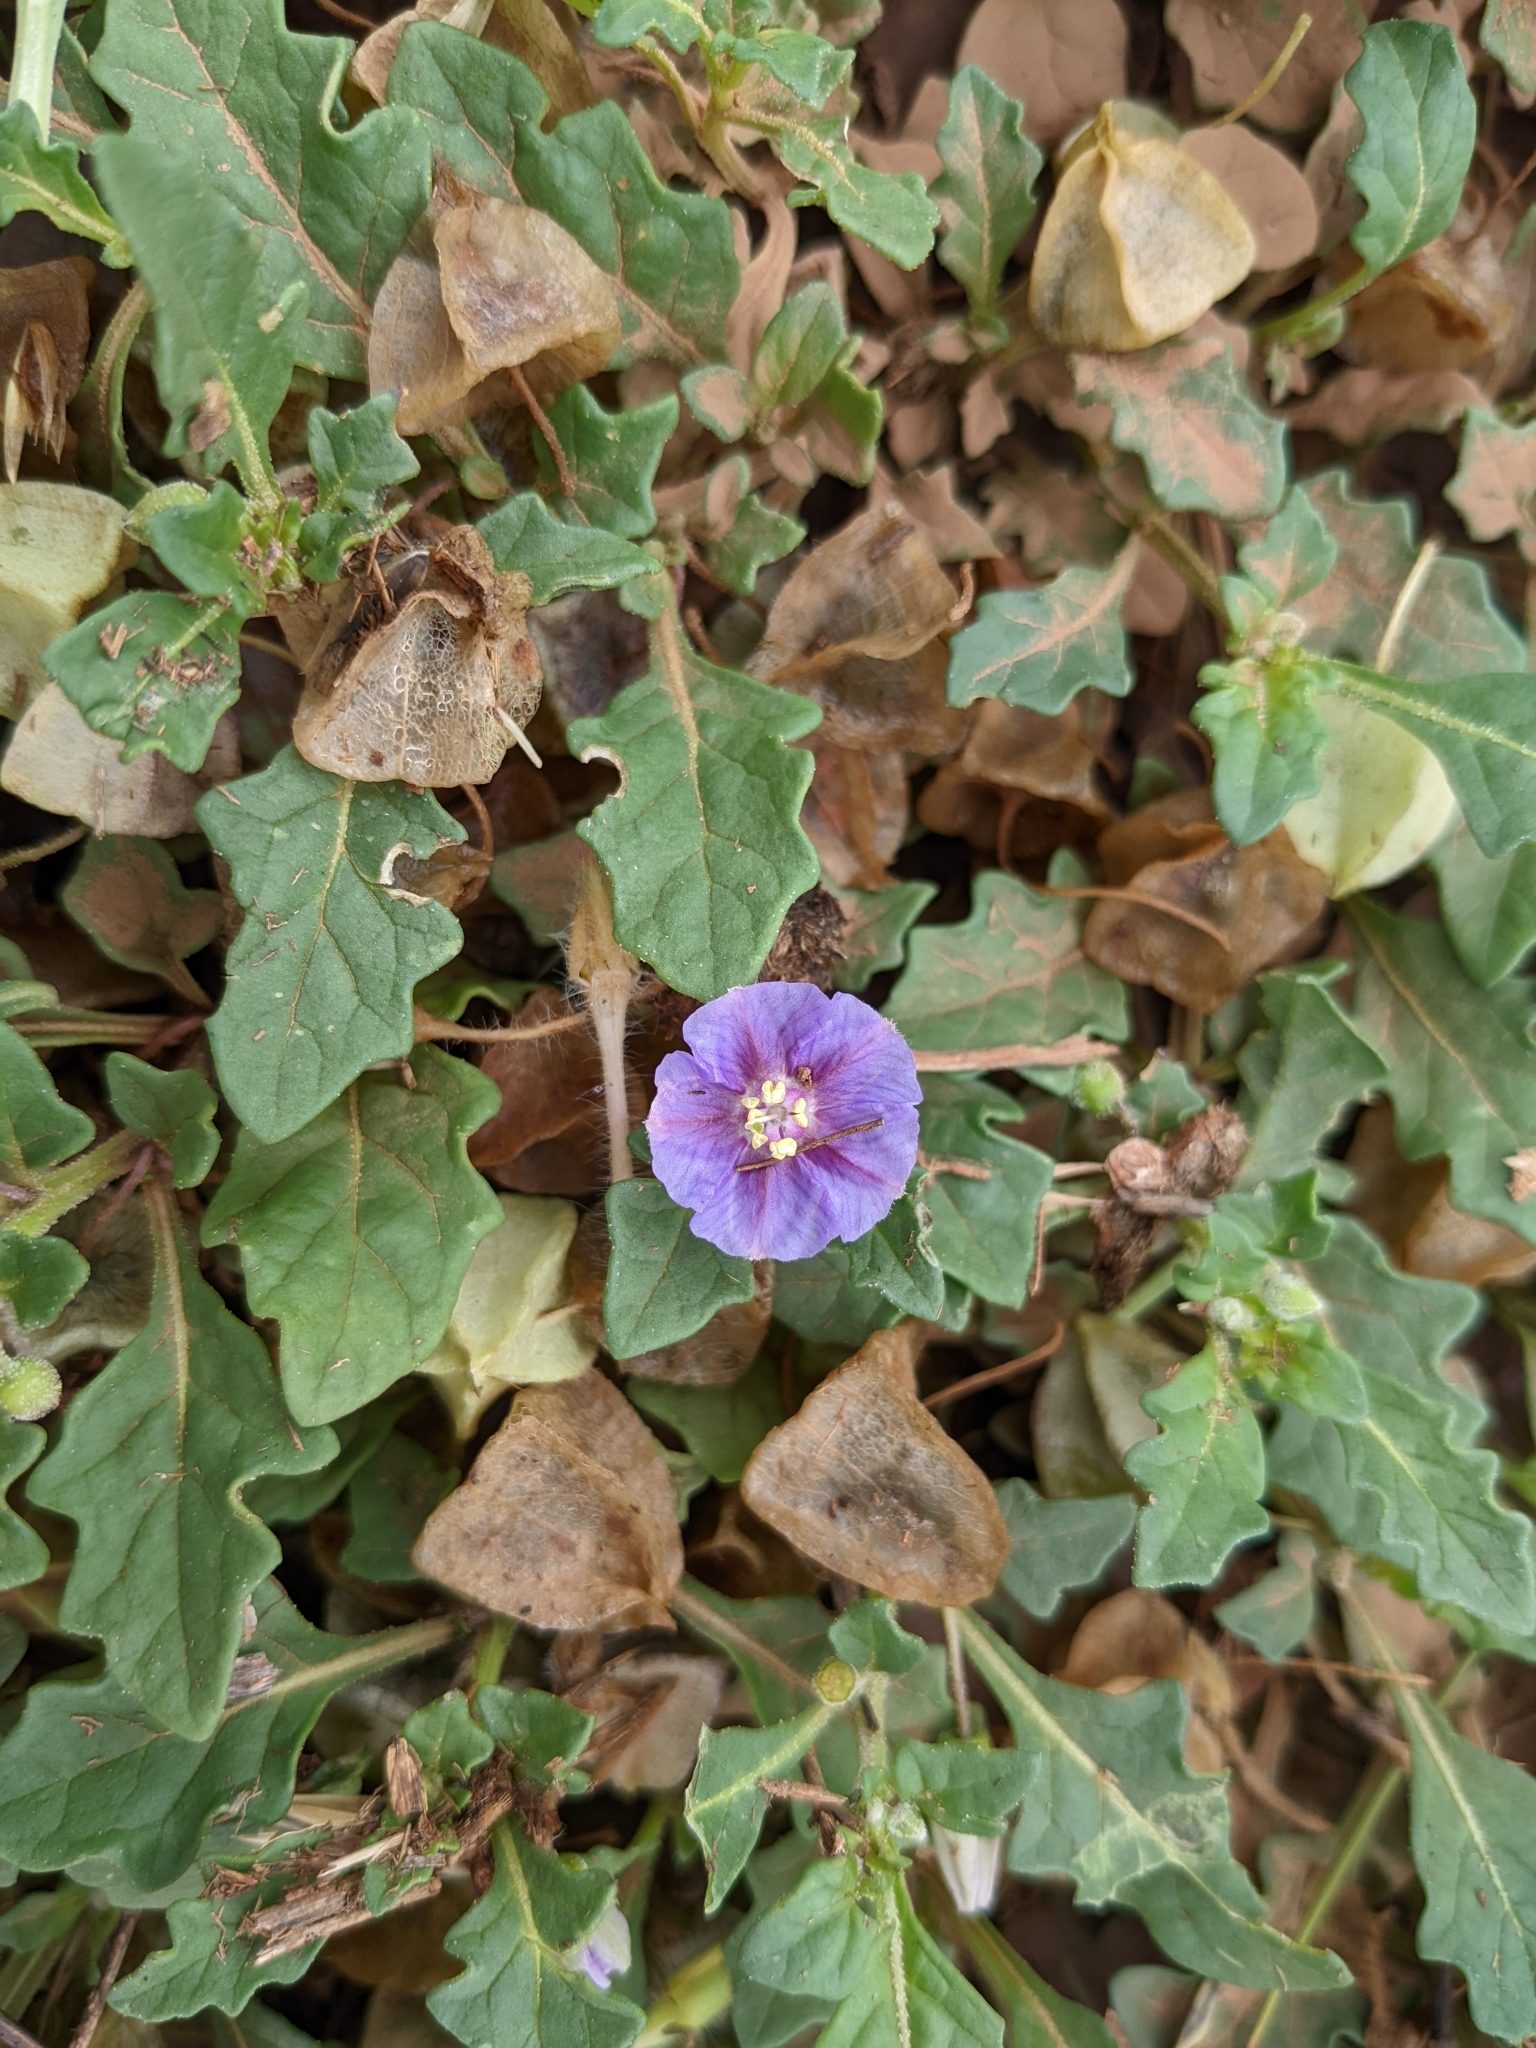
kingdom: Plantae
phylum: Tracheophyta
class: Magnoliopsida
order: Solanales
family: Solanaceae
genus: Quincula
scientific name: Quincula lobata
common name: Purple-ground-cherry
